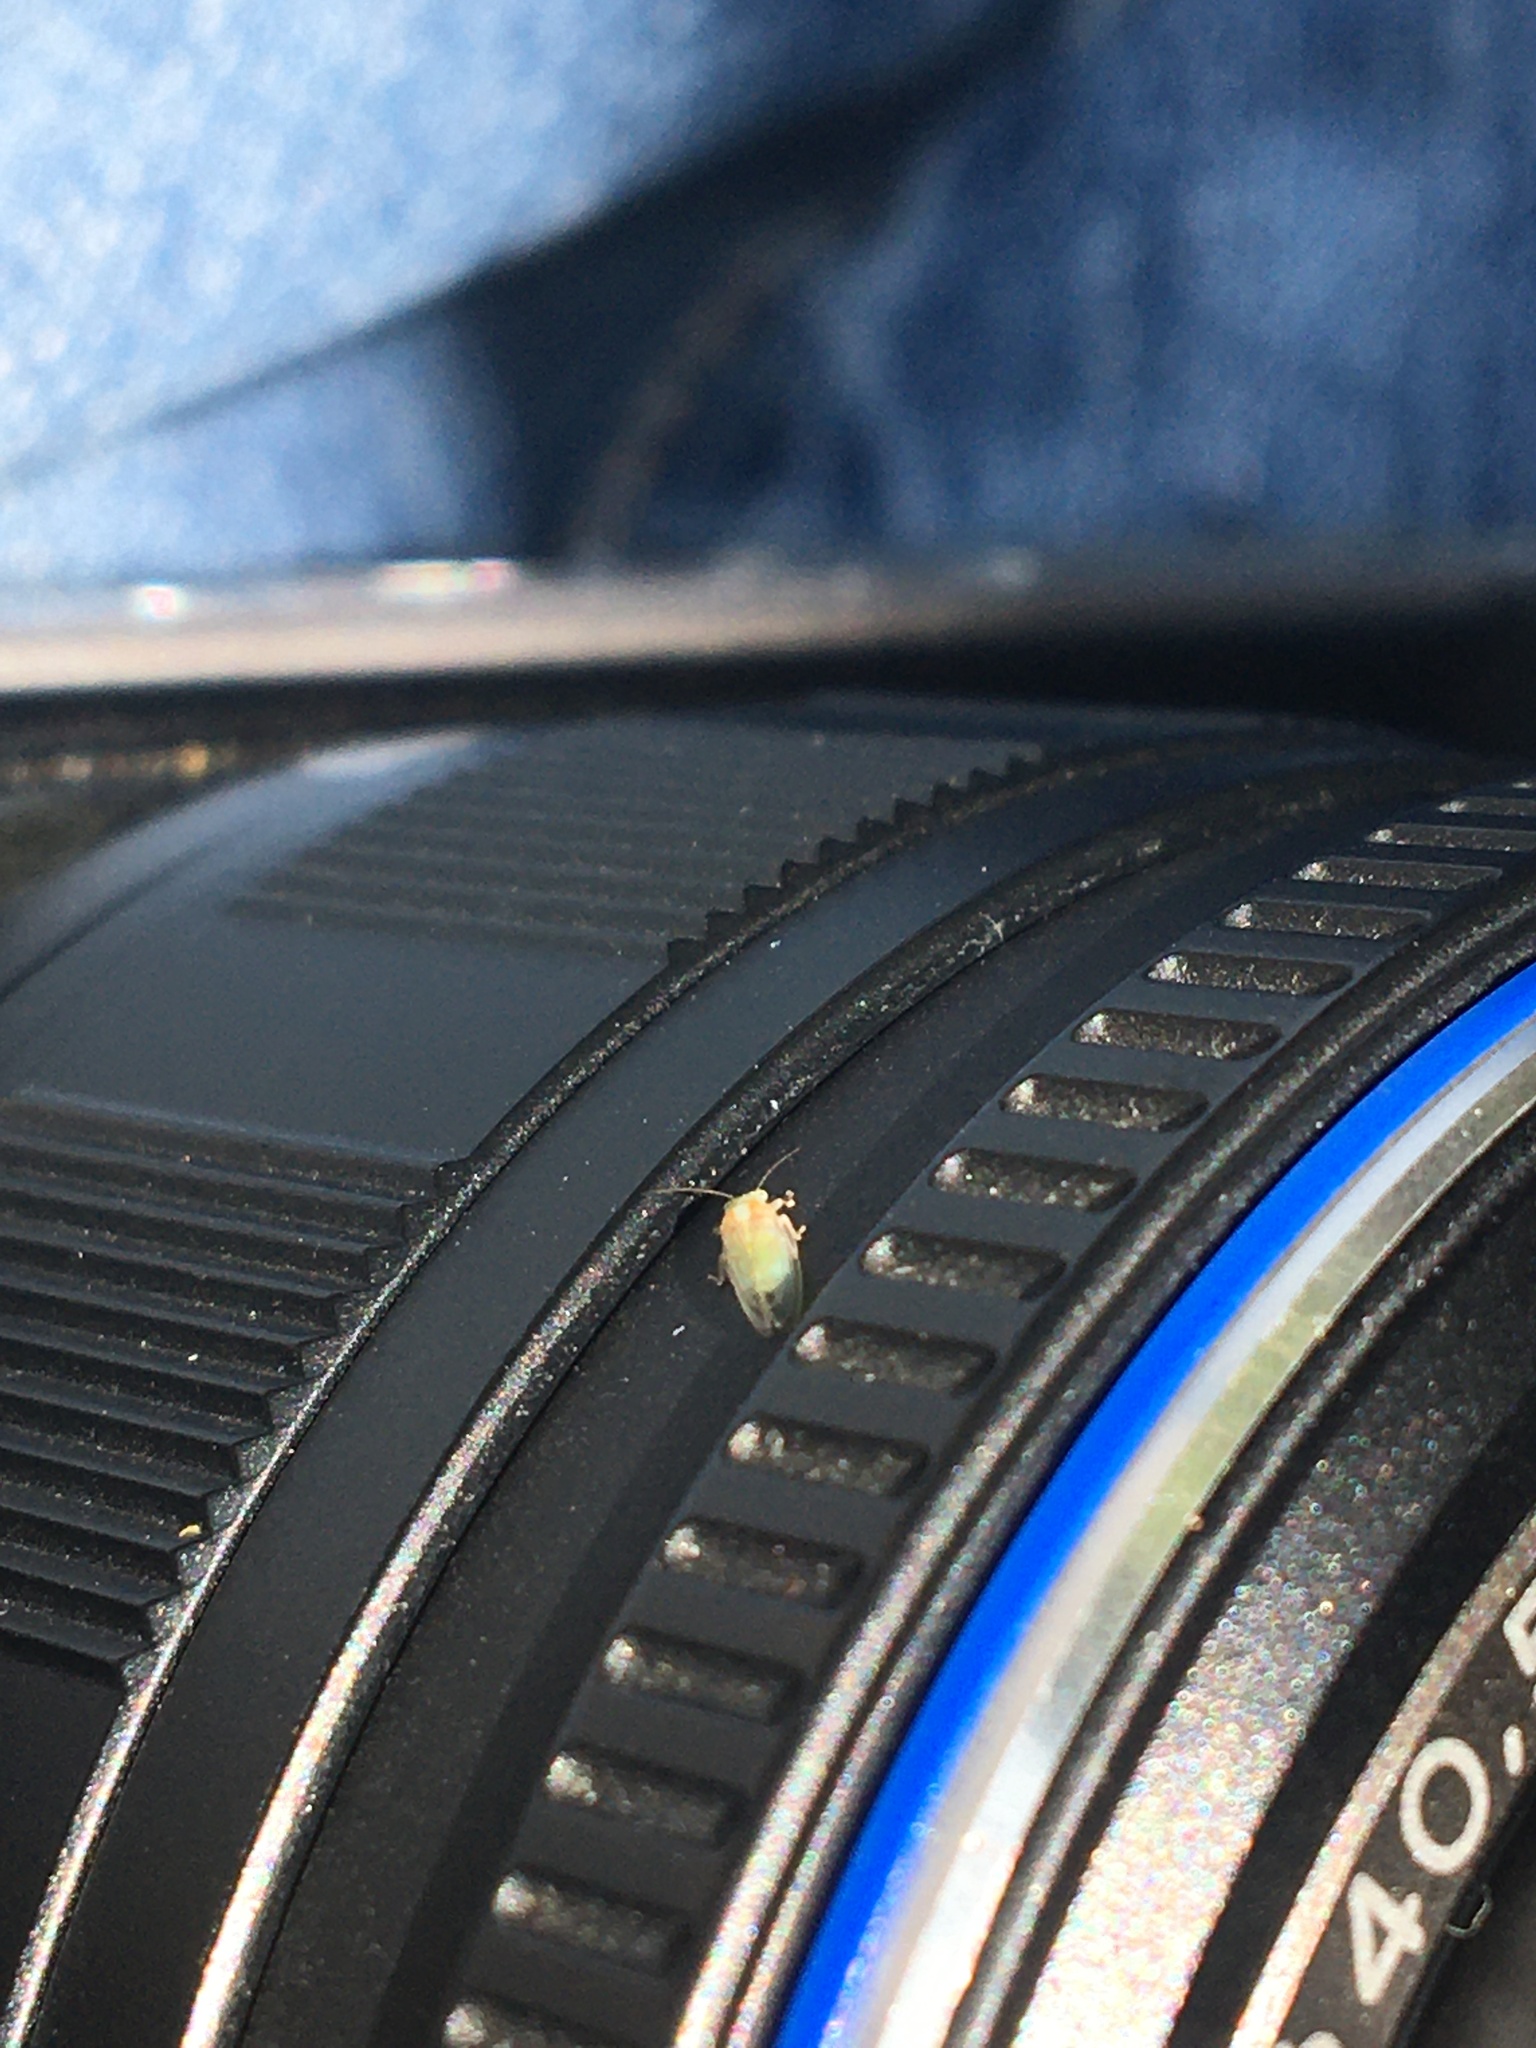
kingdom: Animalia
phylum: Arthropoda
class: Insecta
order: Hemiptera
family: Aphalaridae
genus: Glycaspis
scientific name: Glycaspis brimblecombei
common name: Red gum lerp psyllid
